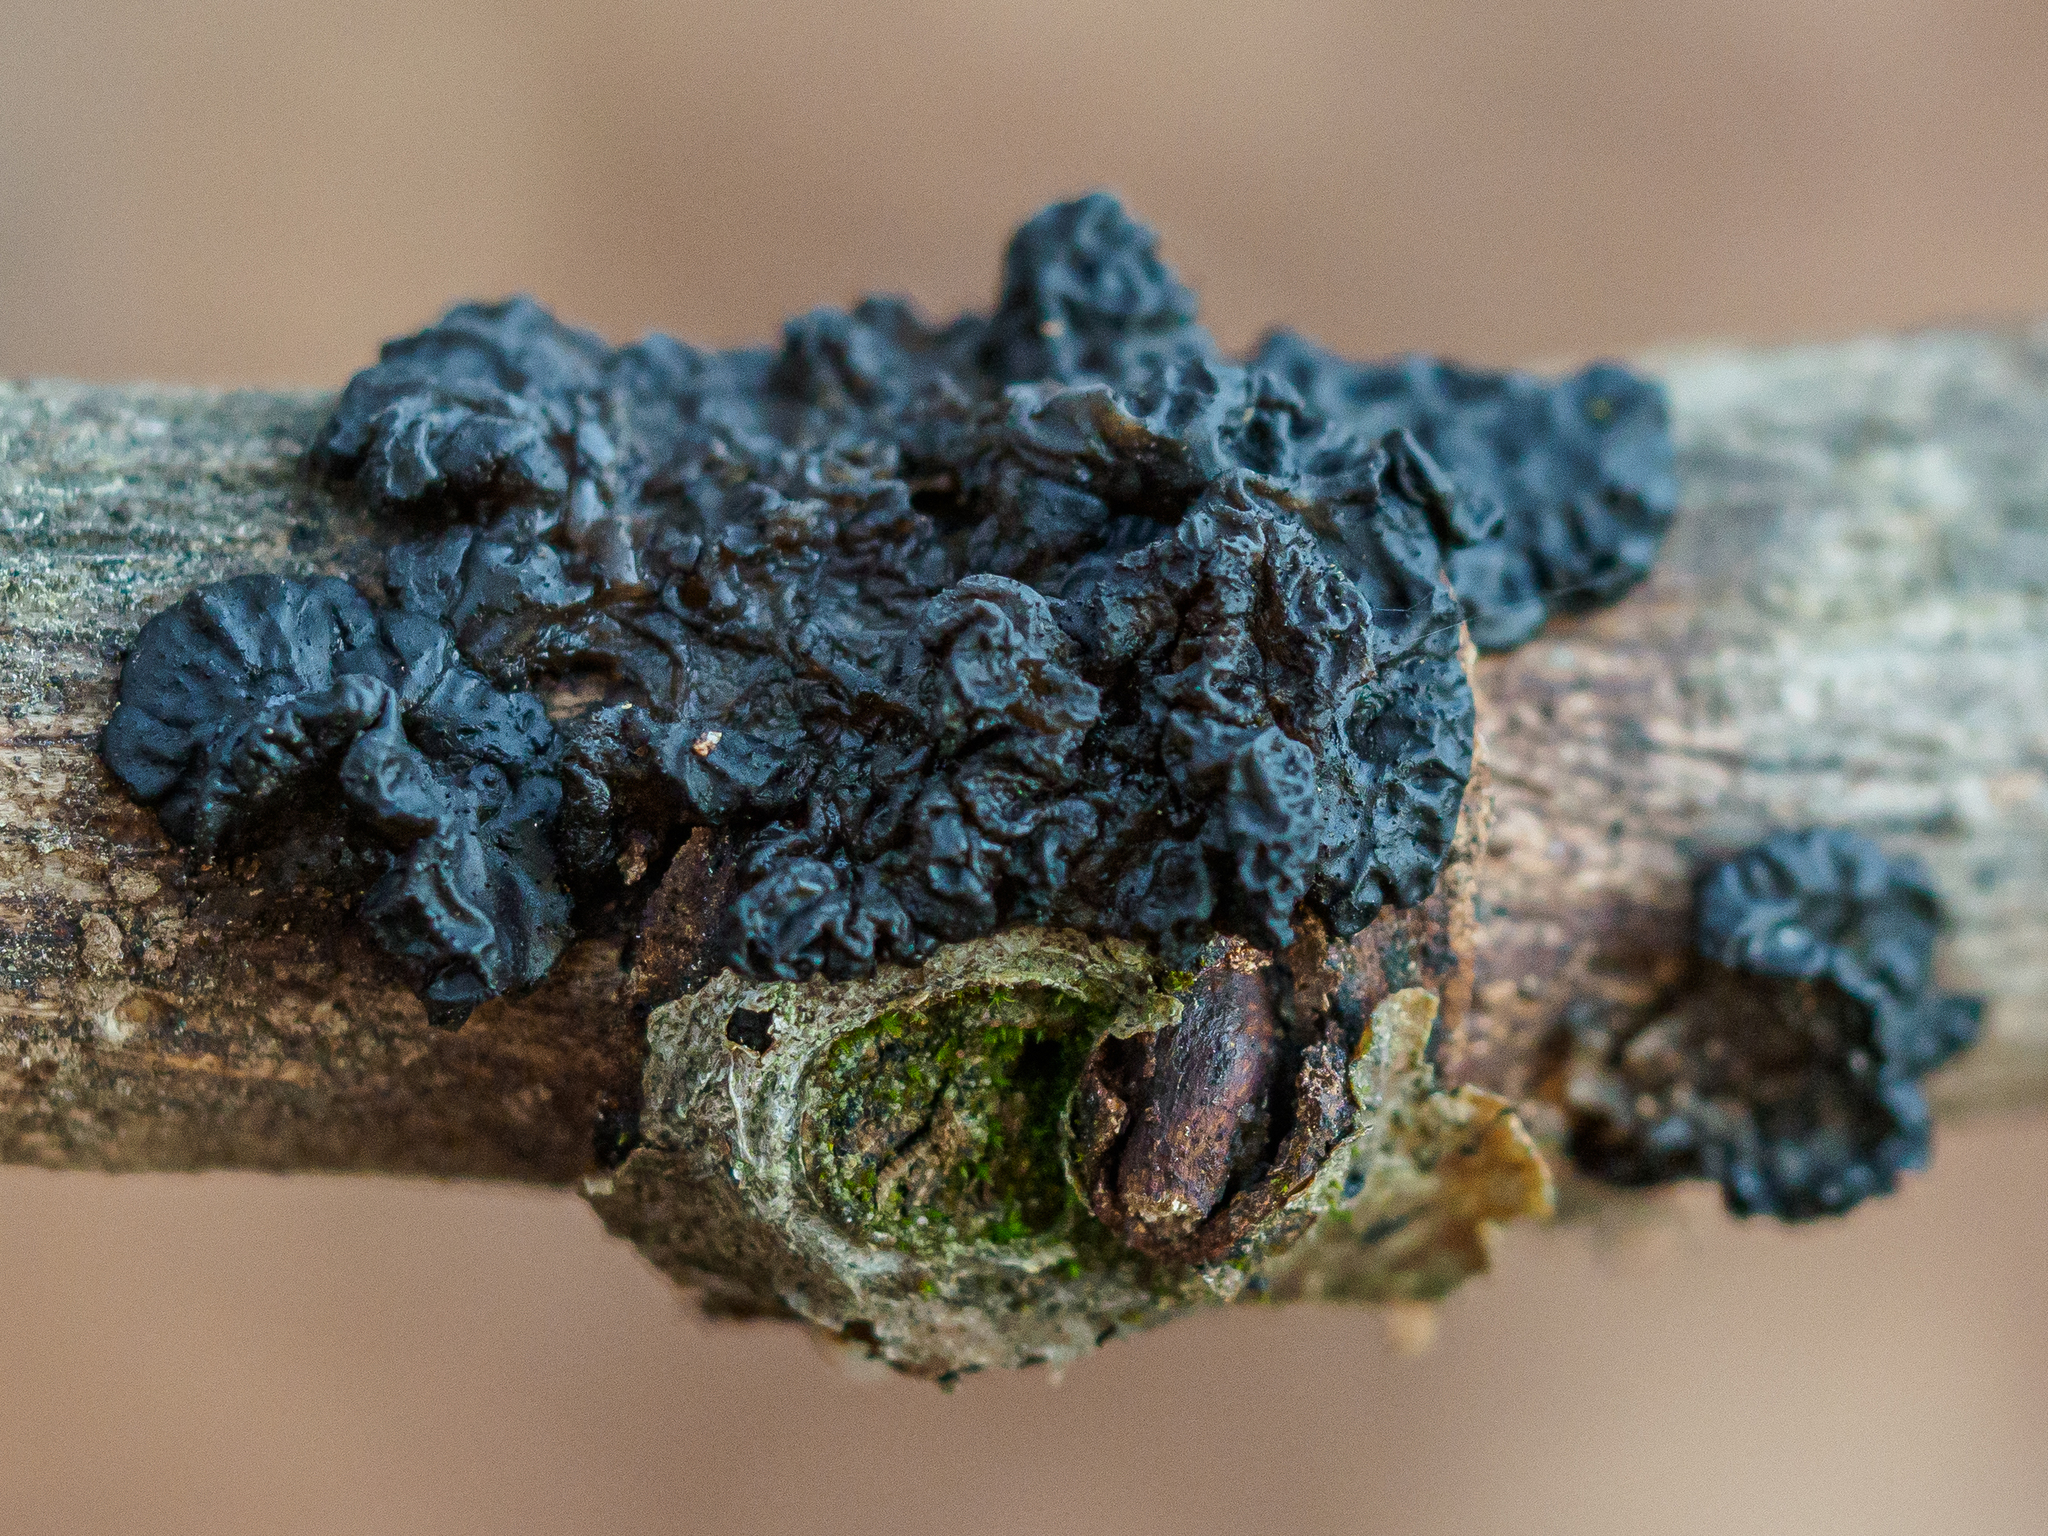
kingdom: Fungi
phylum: Basidiomycota
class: Agaricomycetes
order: Auriculariales
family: Auriculariaceae
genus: Exidia
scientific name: Exidia nigricans
